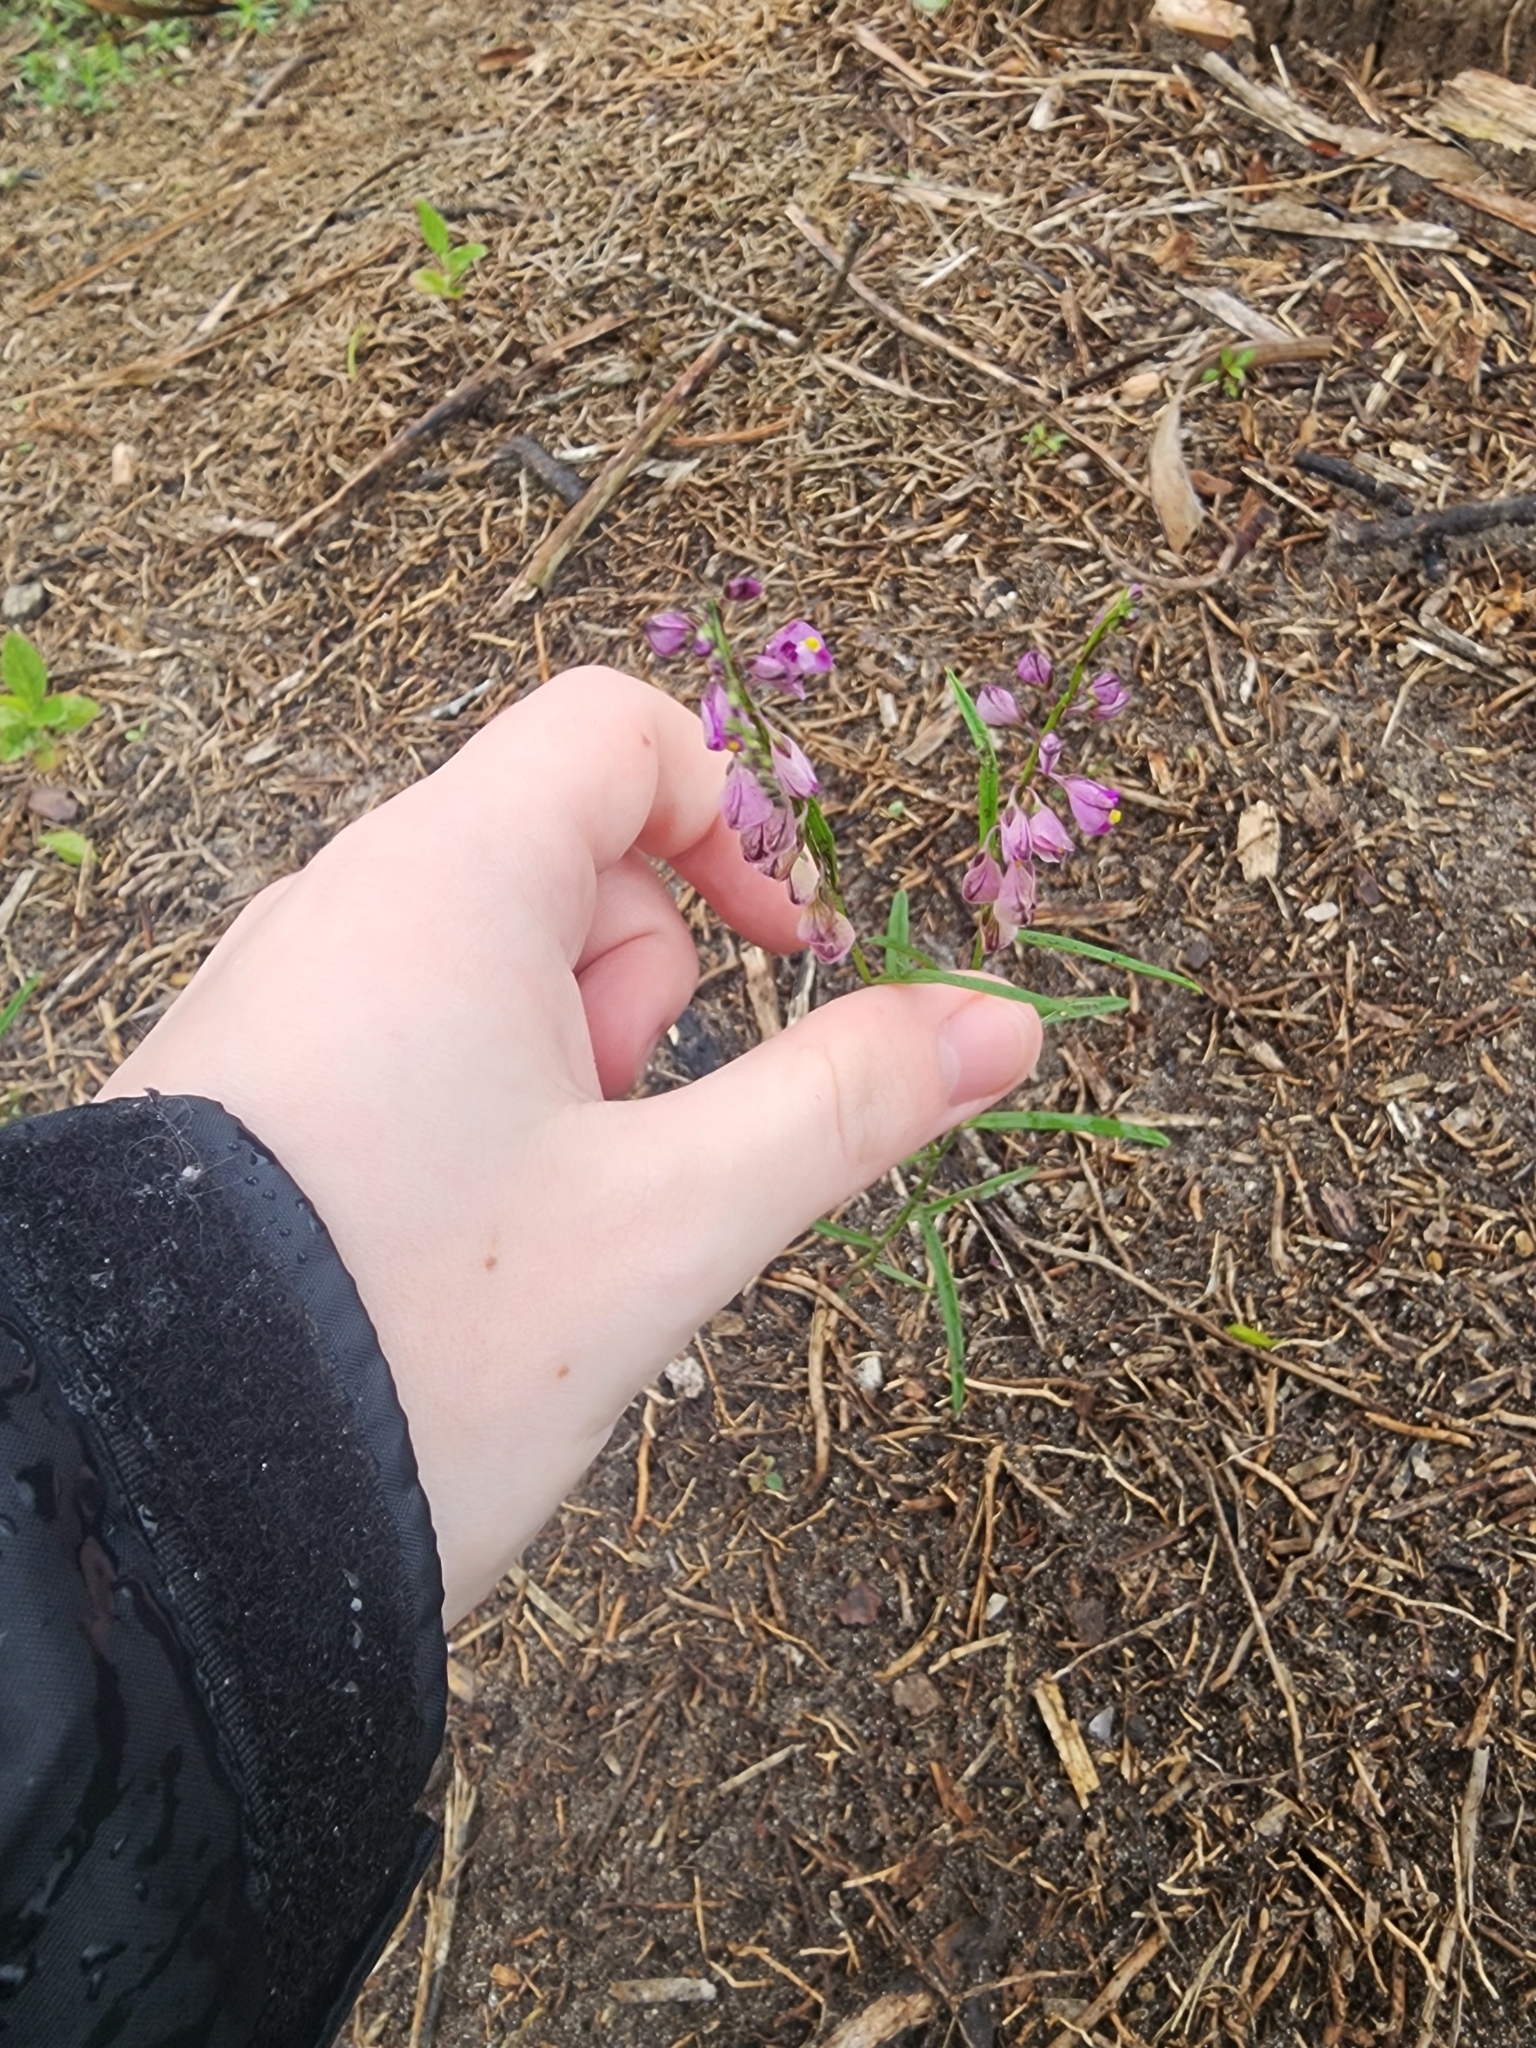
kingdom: Plantae
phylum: Tracheophyta
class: Magnoliopsida
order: Fabales
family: Polygalaceae
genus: Asemeia
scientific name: Asemeia grandiflora
